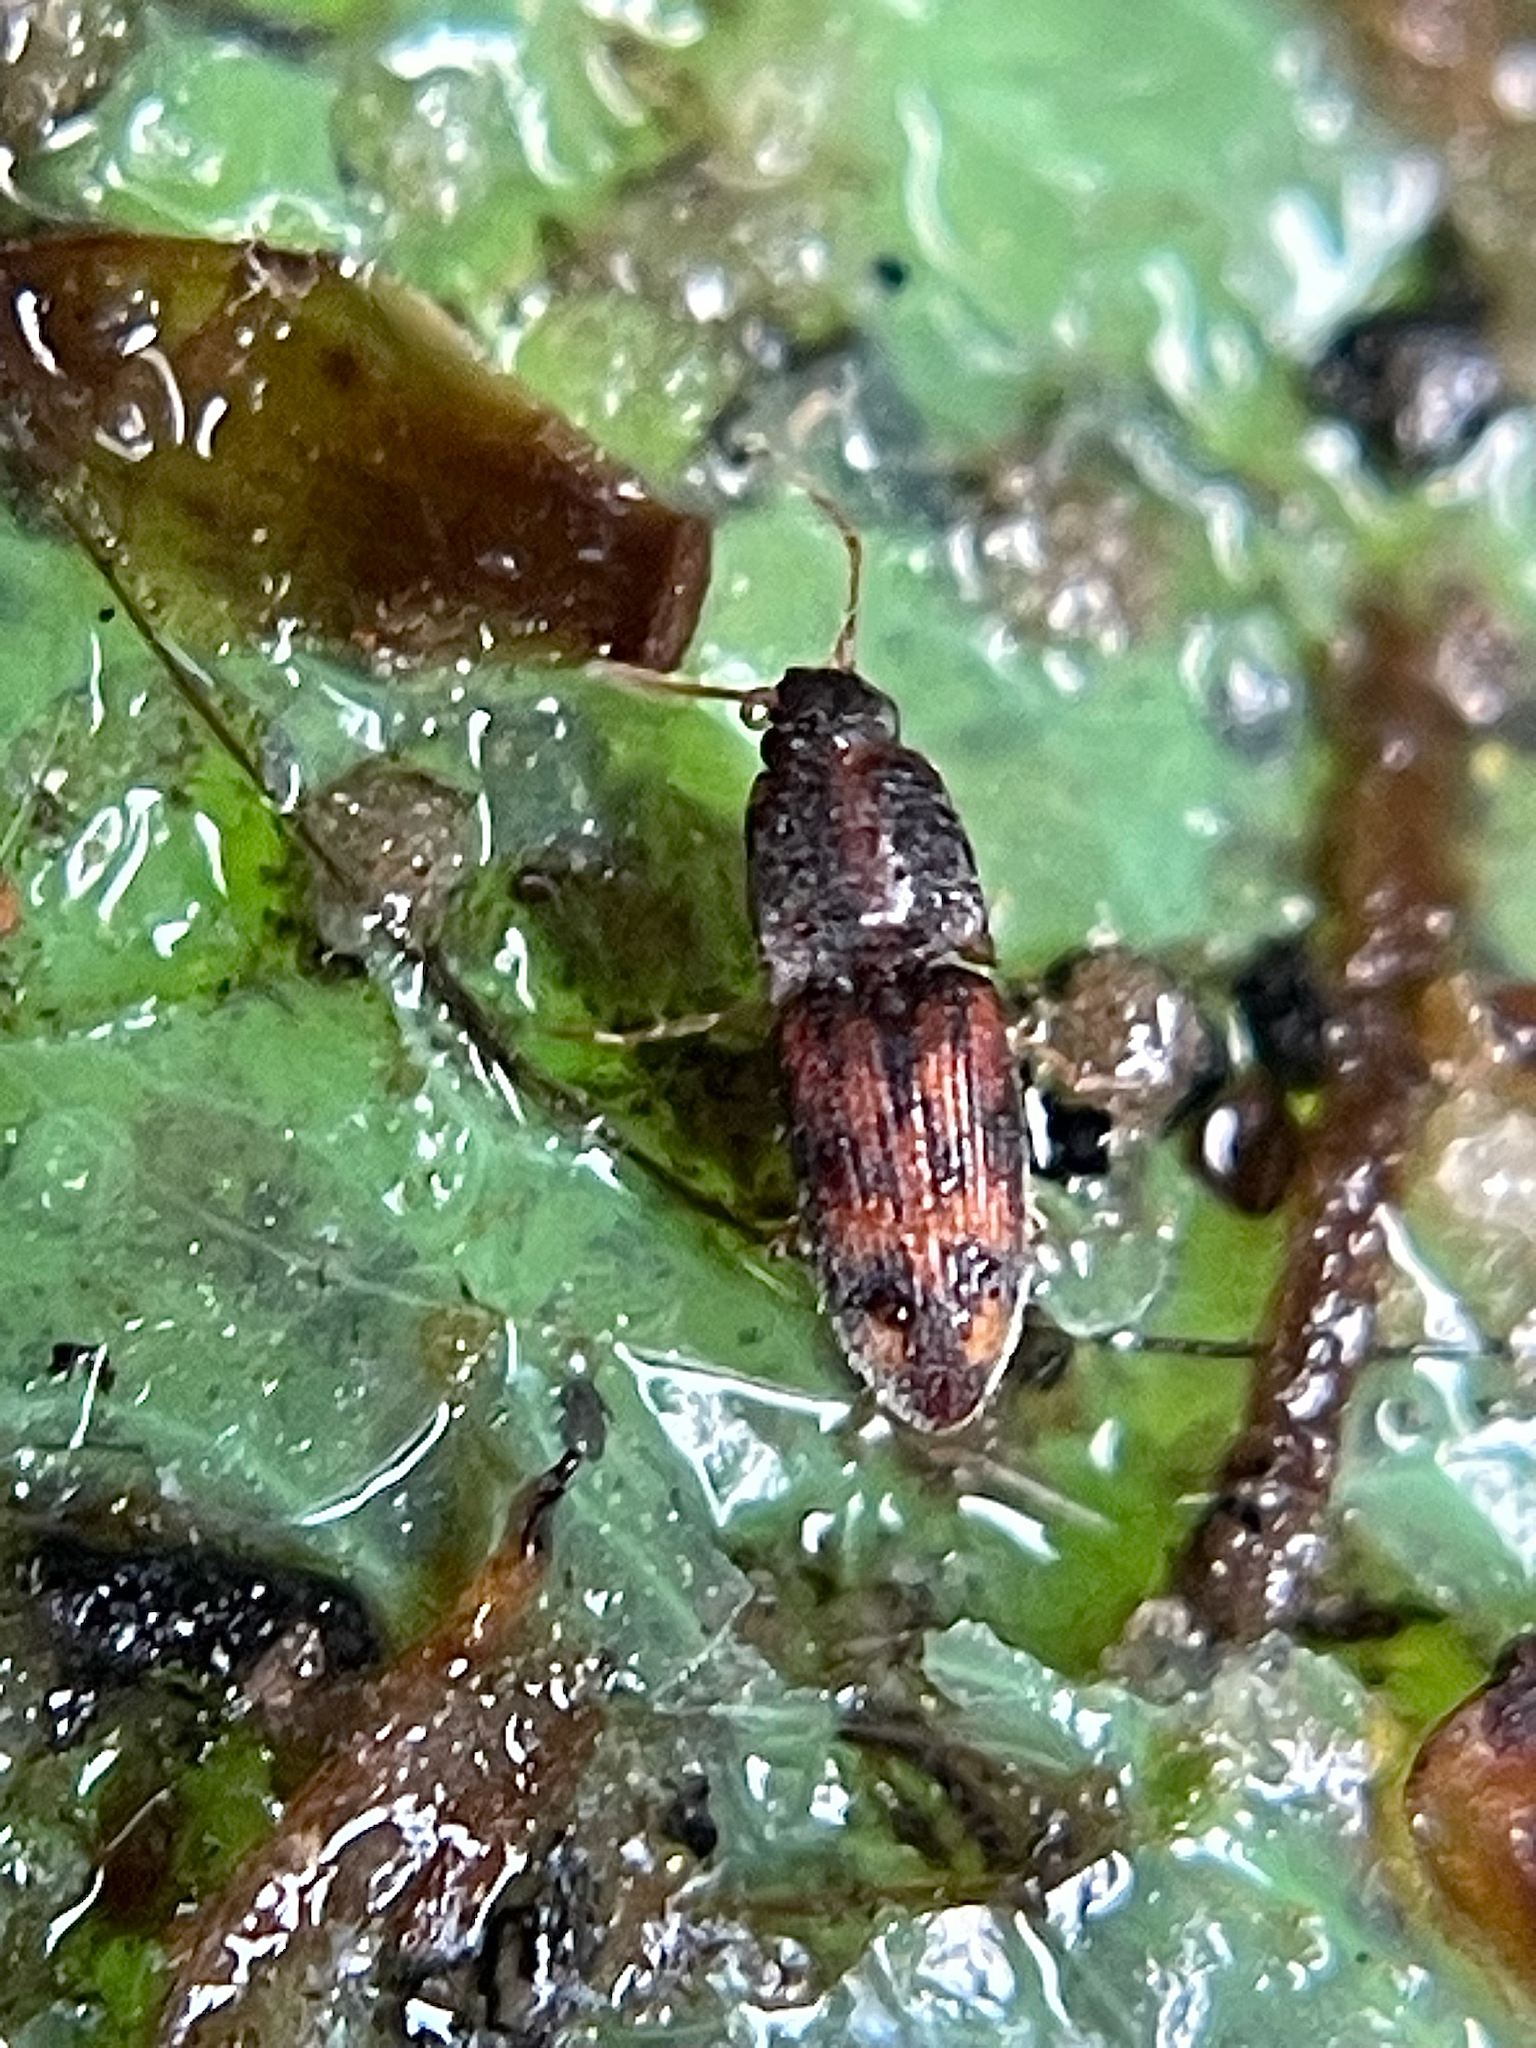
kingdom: Animalia
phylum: Arthropoda
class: Insecta
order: Coleoptera
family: Elateridae
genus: Monocrepidius
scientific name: Monocrepidius bellus
